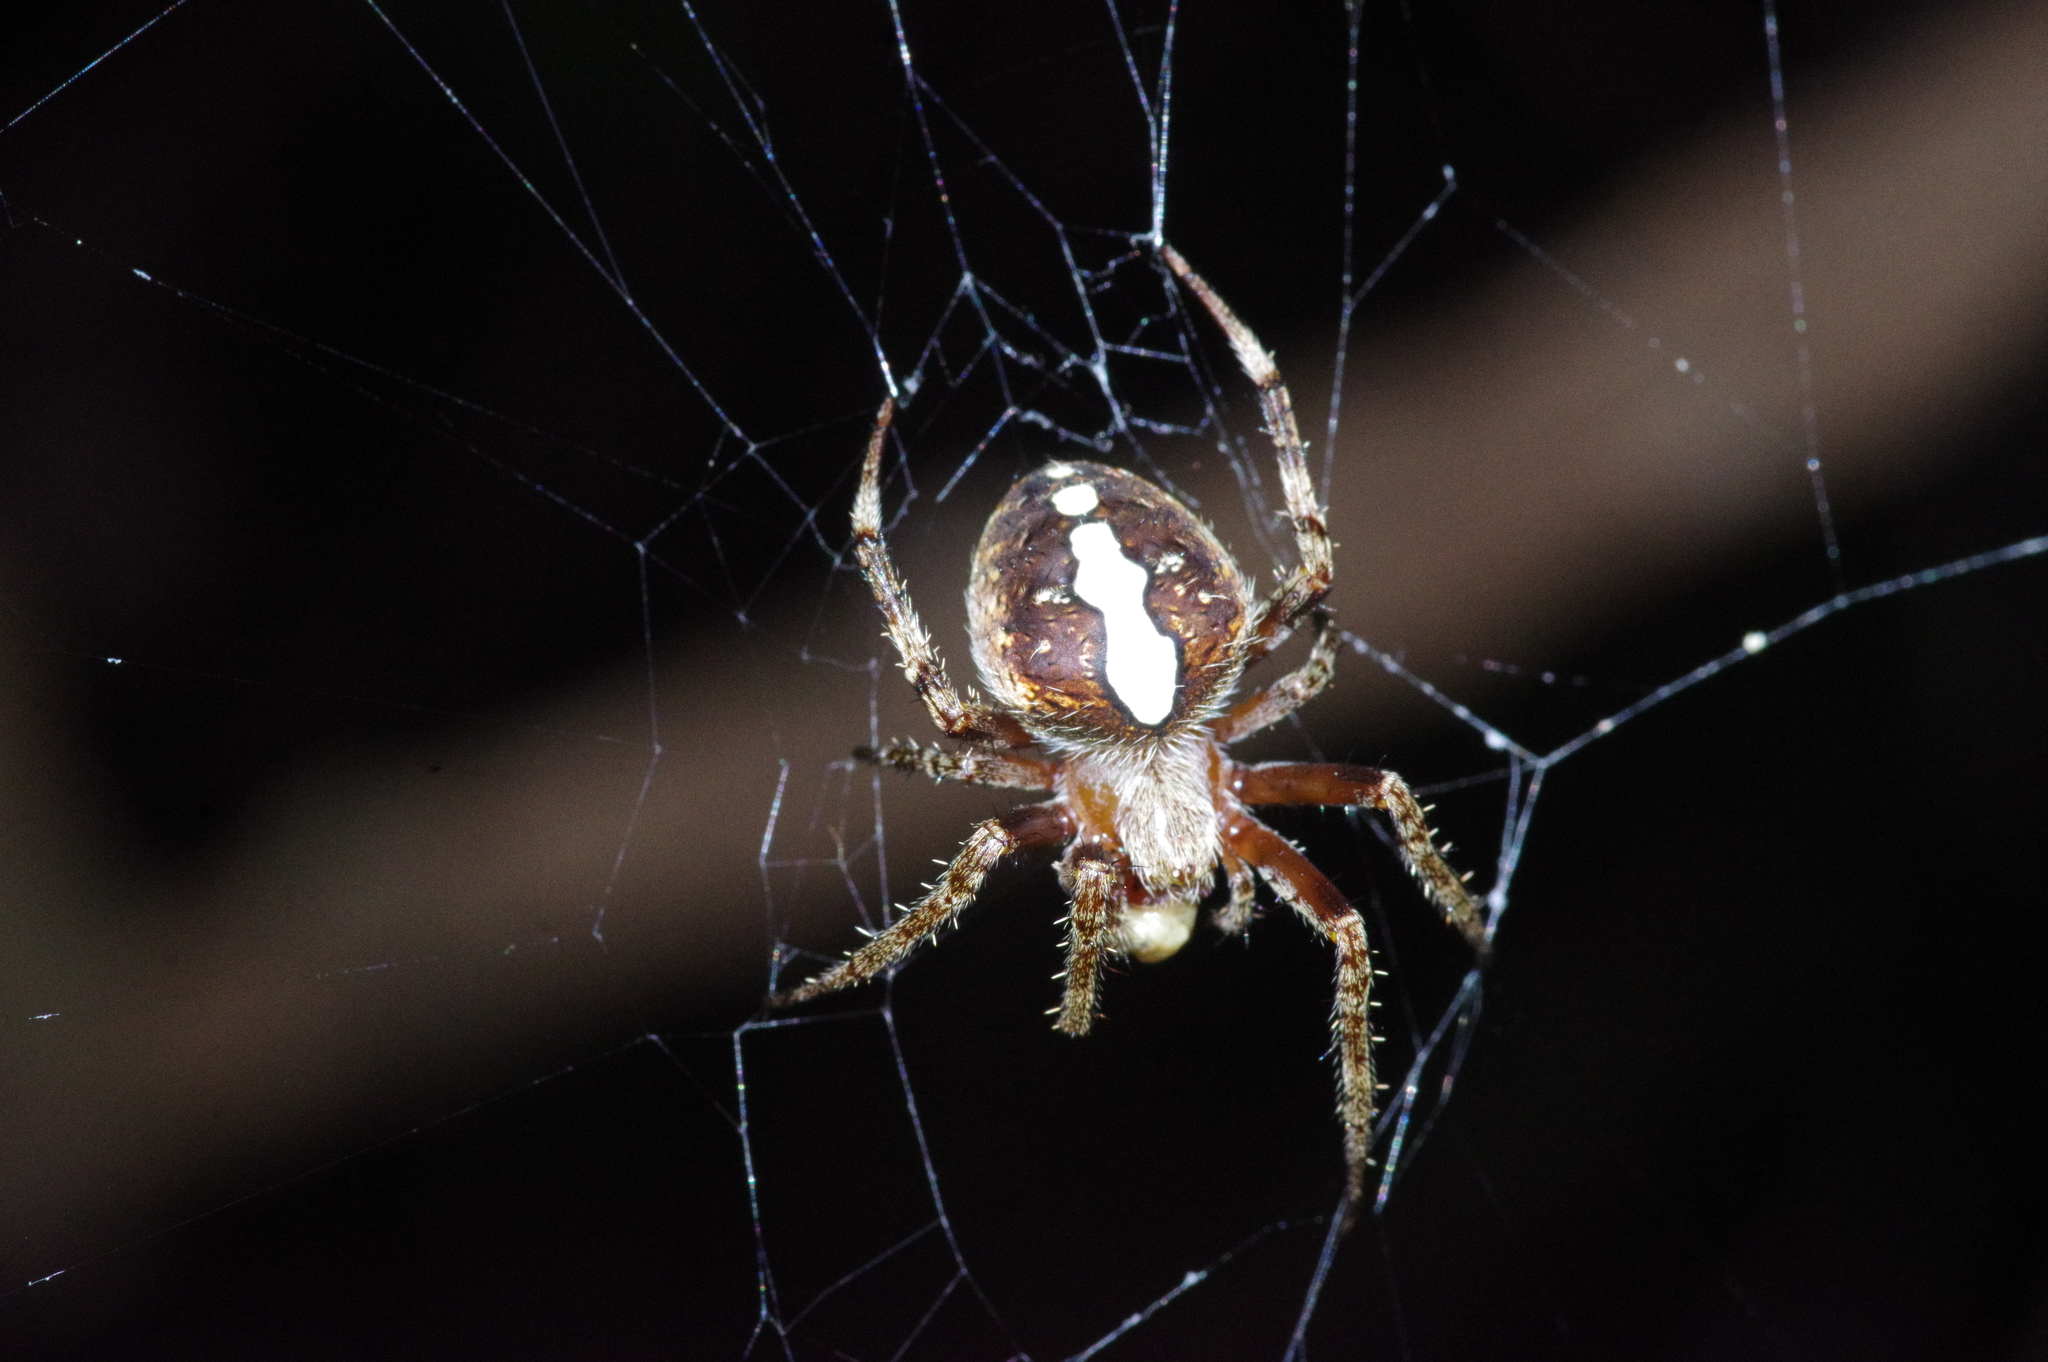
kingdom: Animalia
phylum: Arthropoda
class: Arachnida
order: Araneae
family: Araneidae
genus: Neoscona
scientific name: Neoscona scylla
